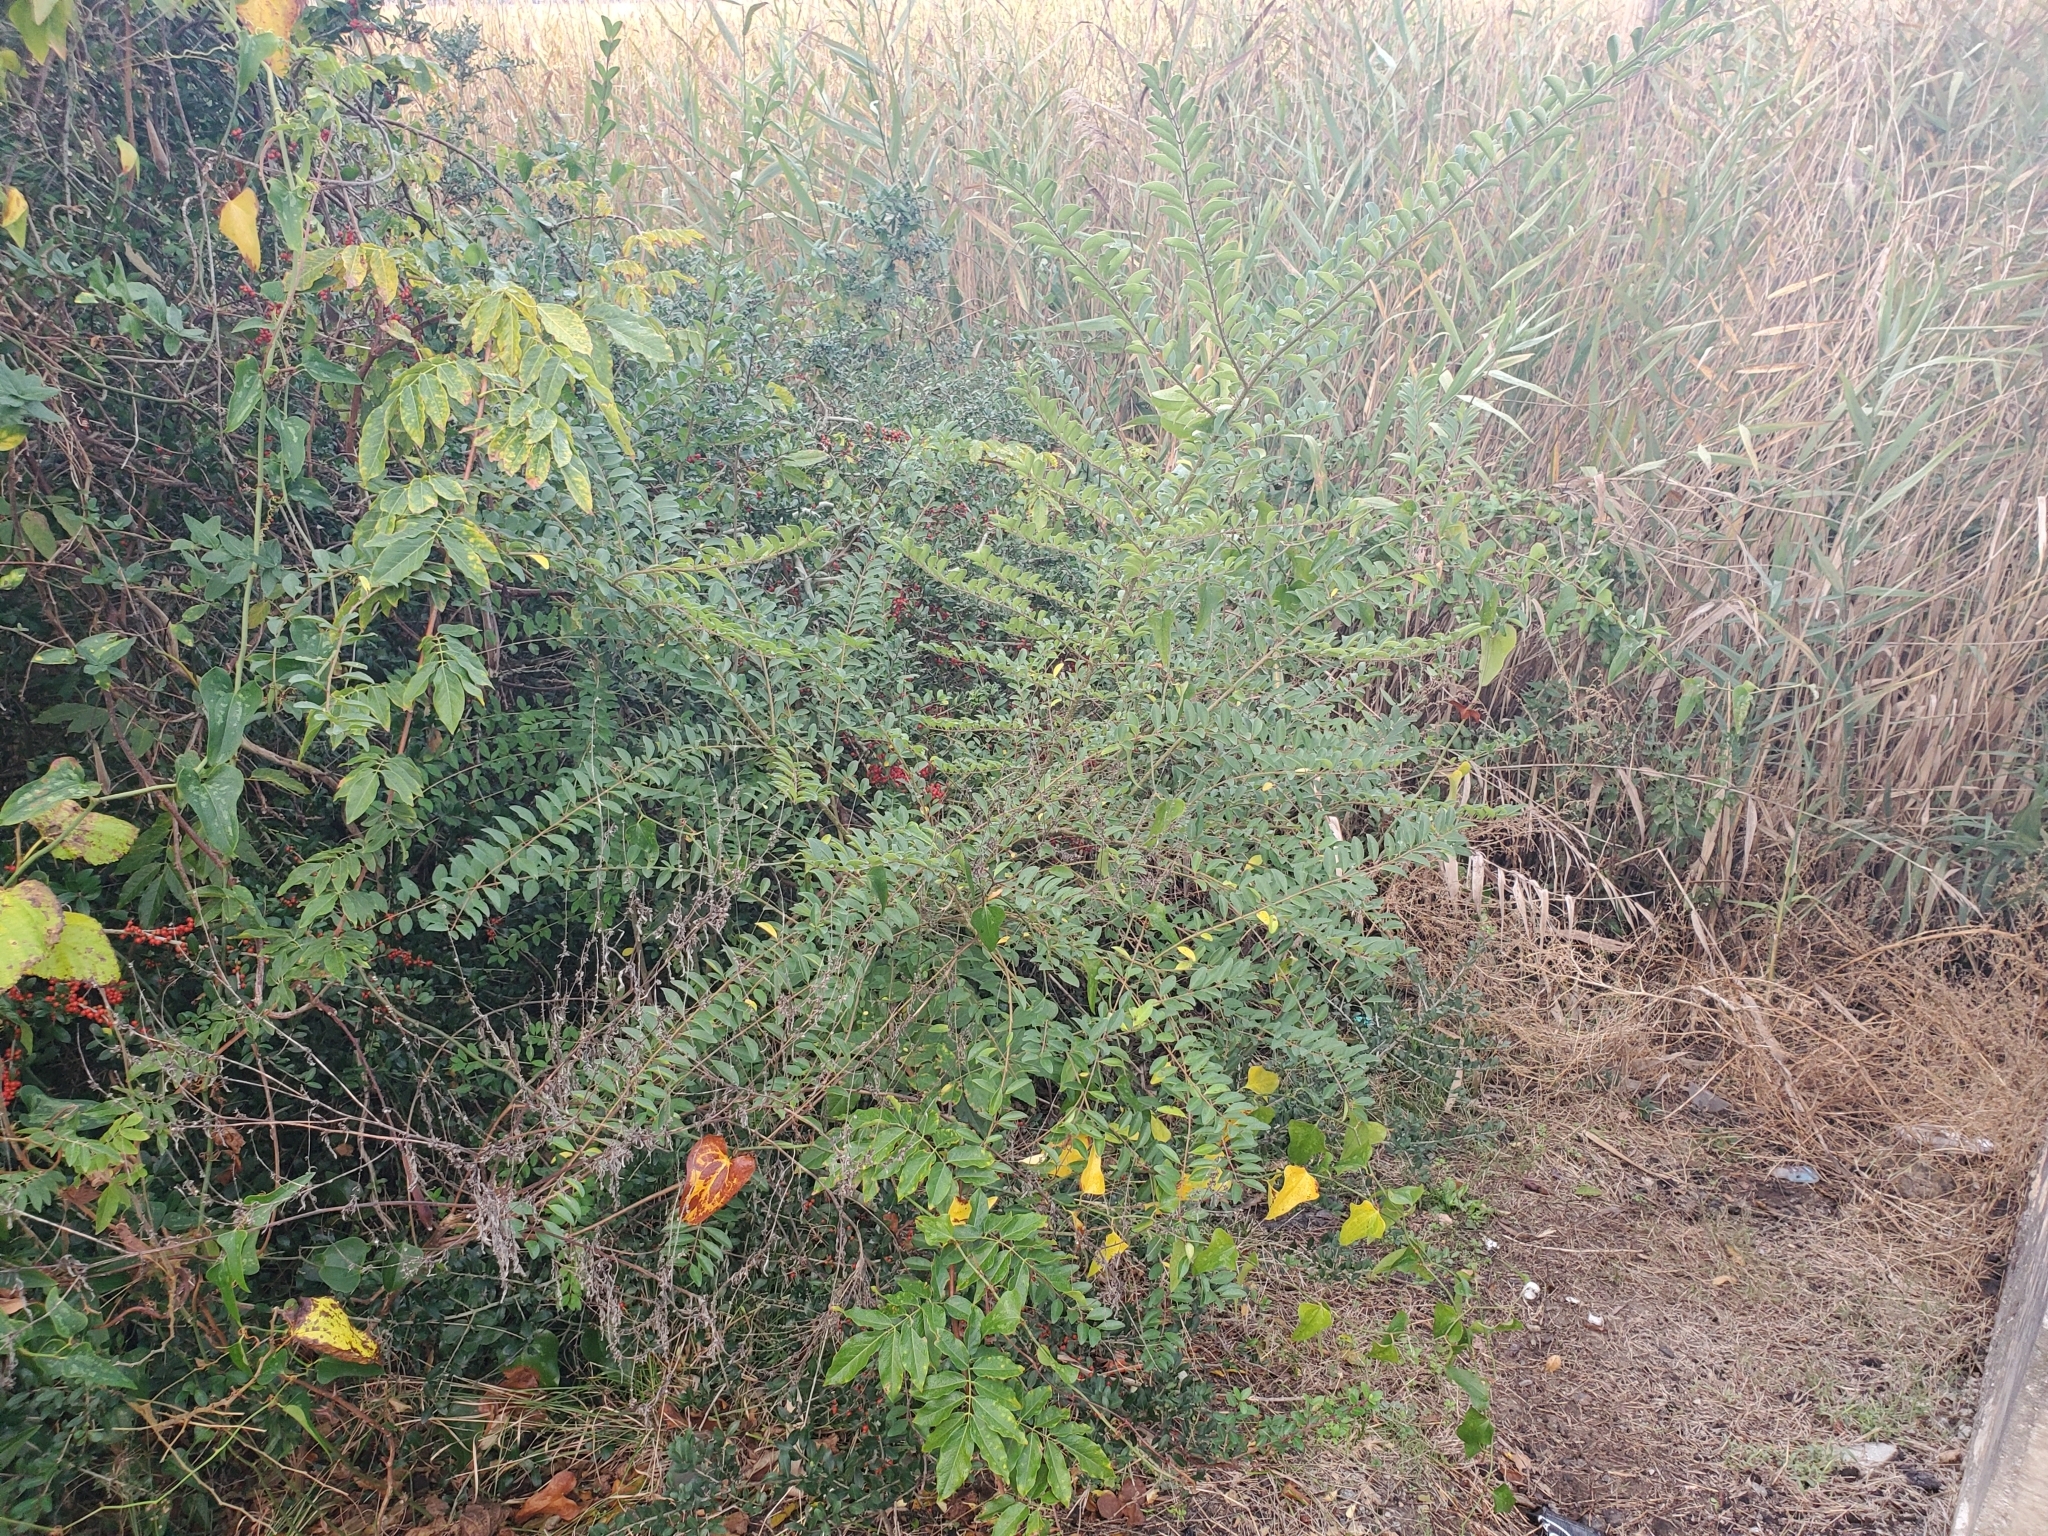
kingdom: Plantae
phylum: Tracheophyta
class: Magnoliopsida
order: Lamiales
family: Oleaceae
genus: Ligustrum
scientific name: Ligustrum sinense
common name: Chinese privet
